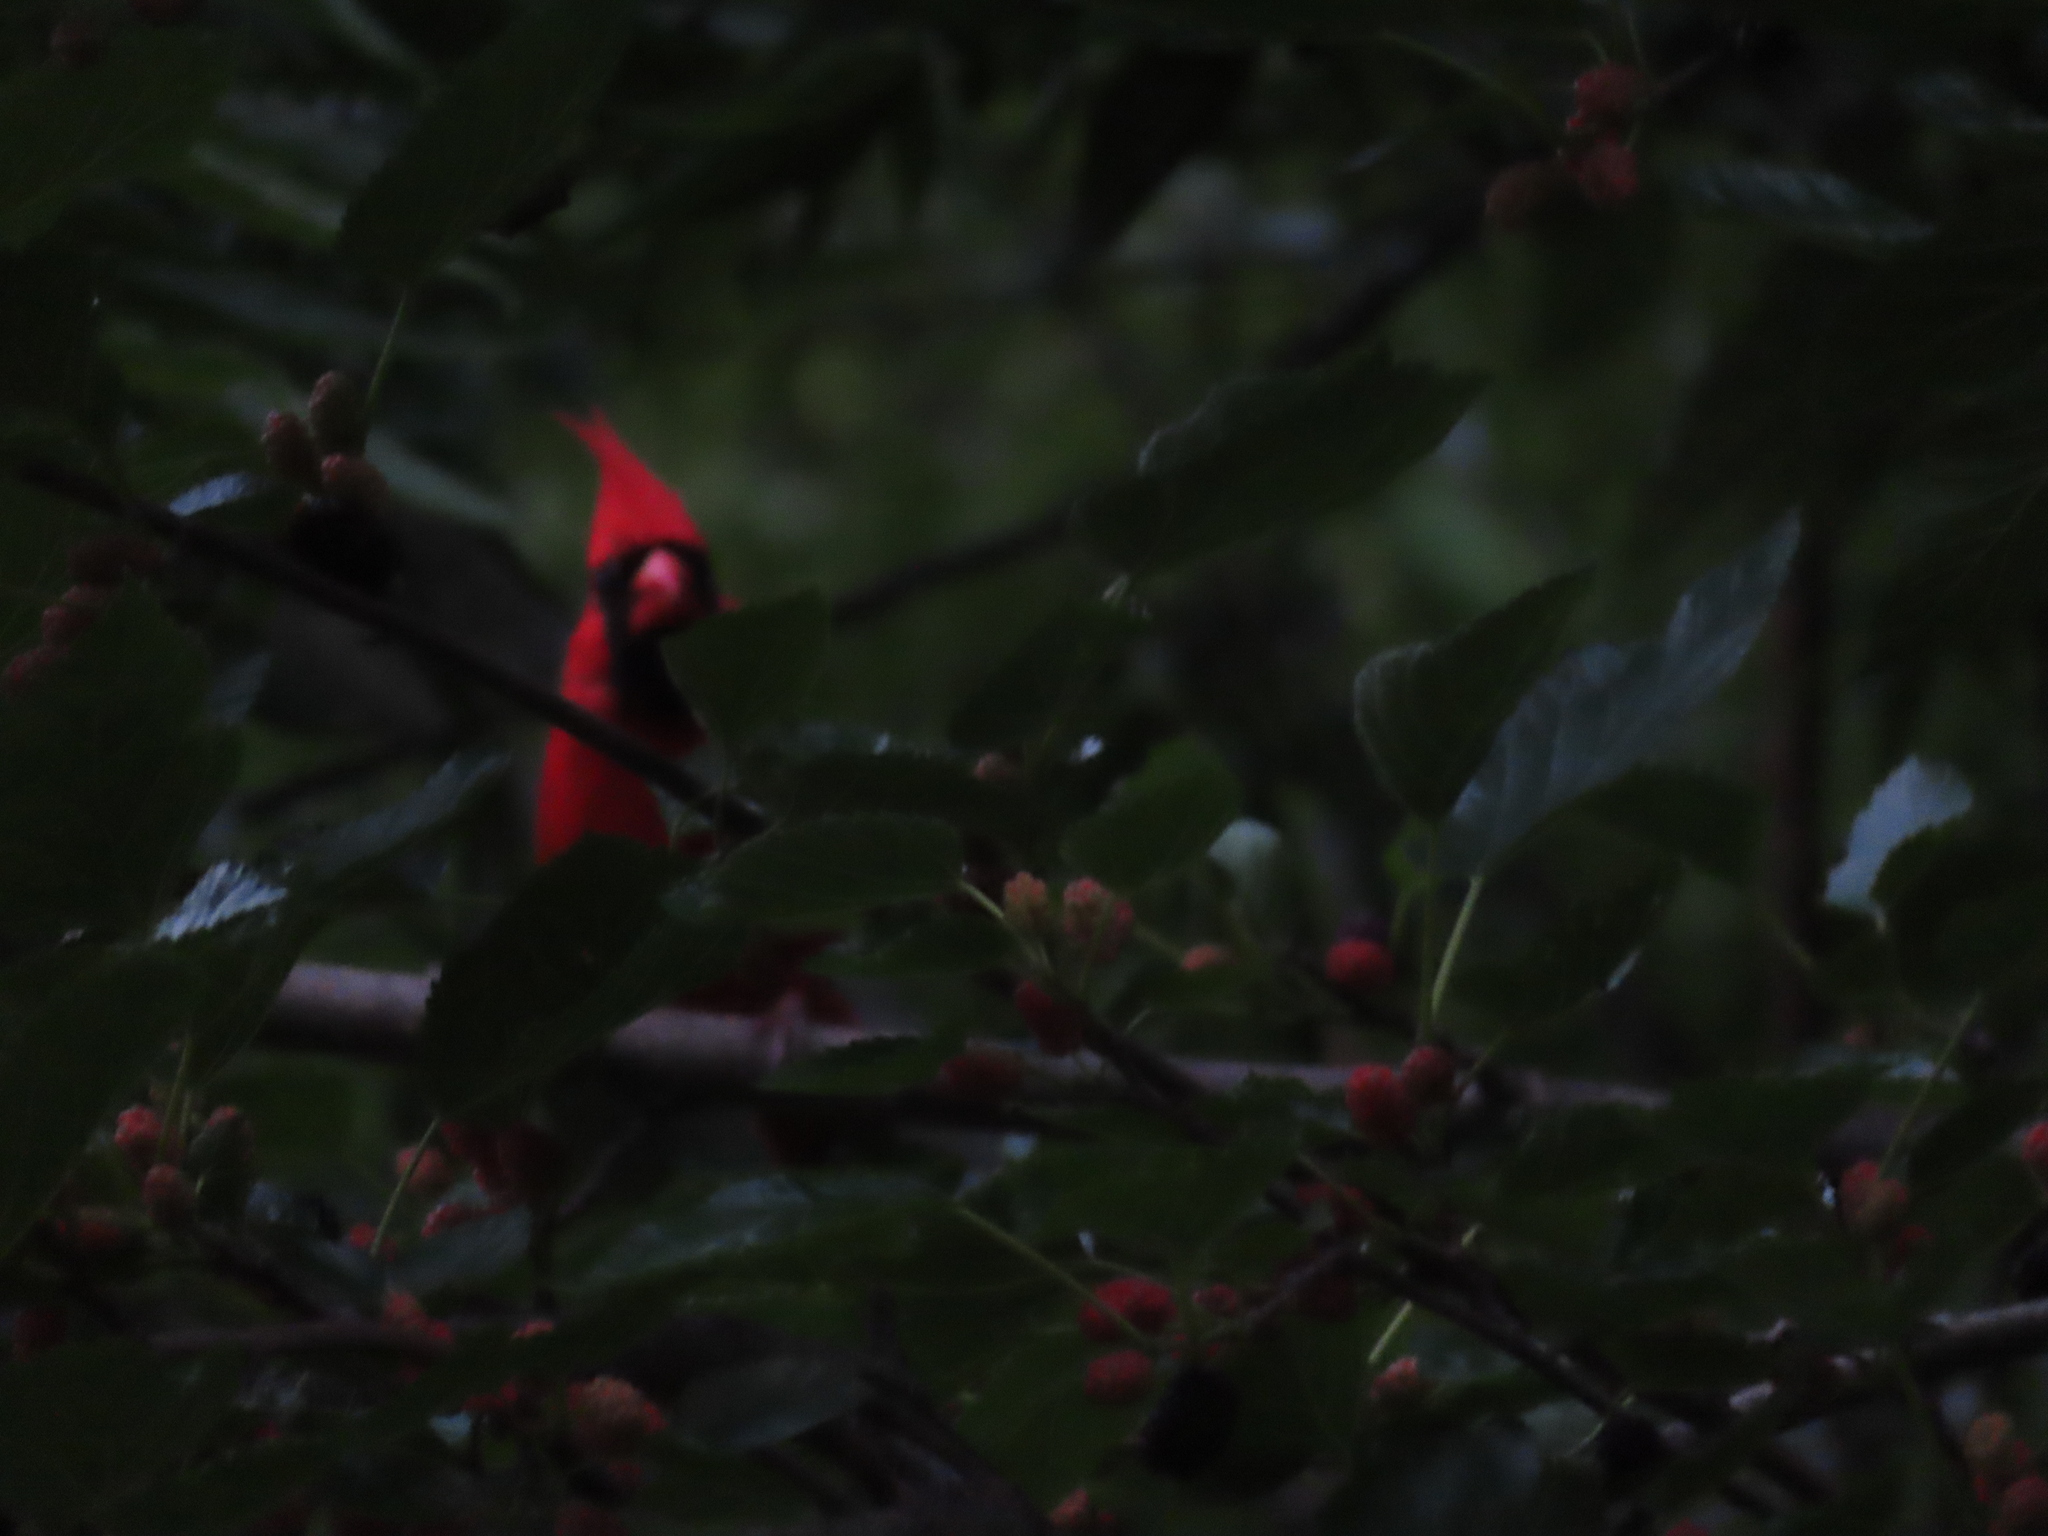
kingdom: Animalia
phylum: Chordata
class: Aves
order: Passeriformes
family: Cardinalidae
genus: Cardinalis
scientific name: Cardinalis cardinalis
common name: Northern cardinal
